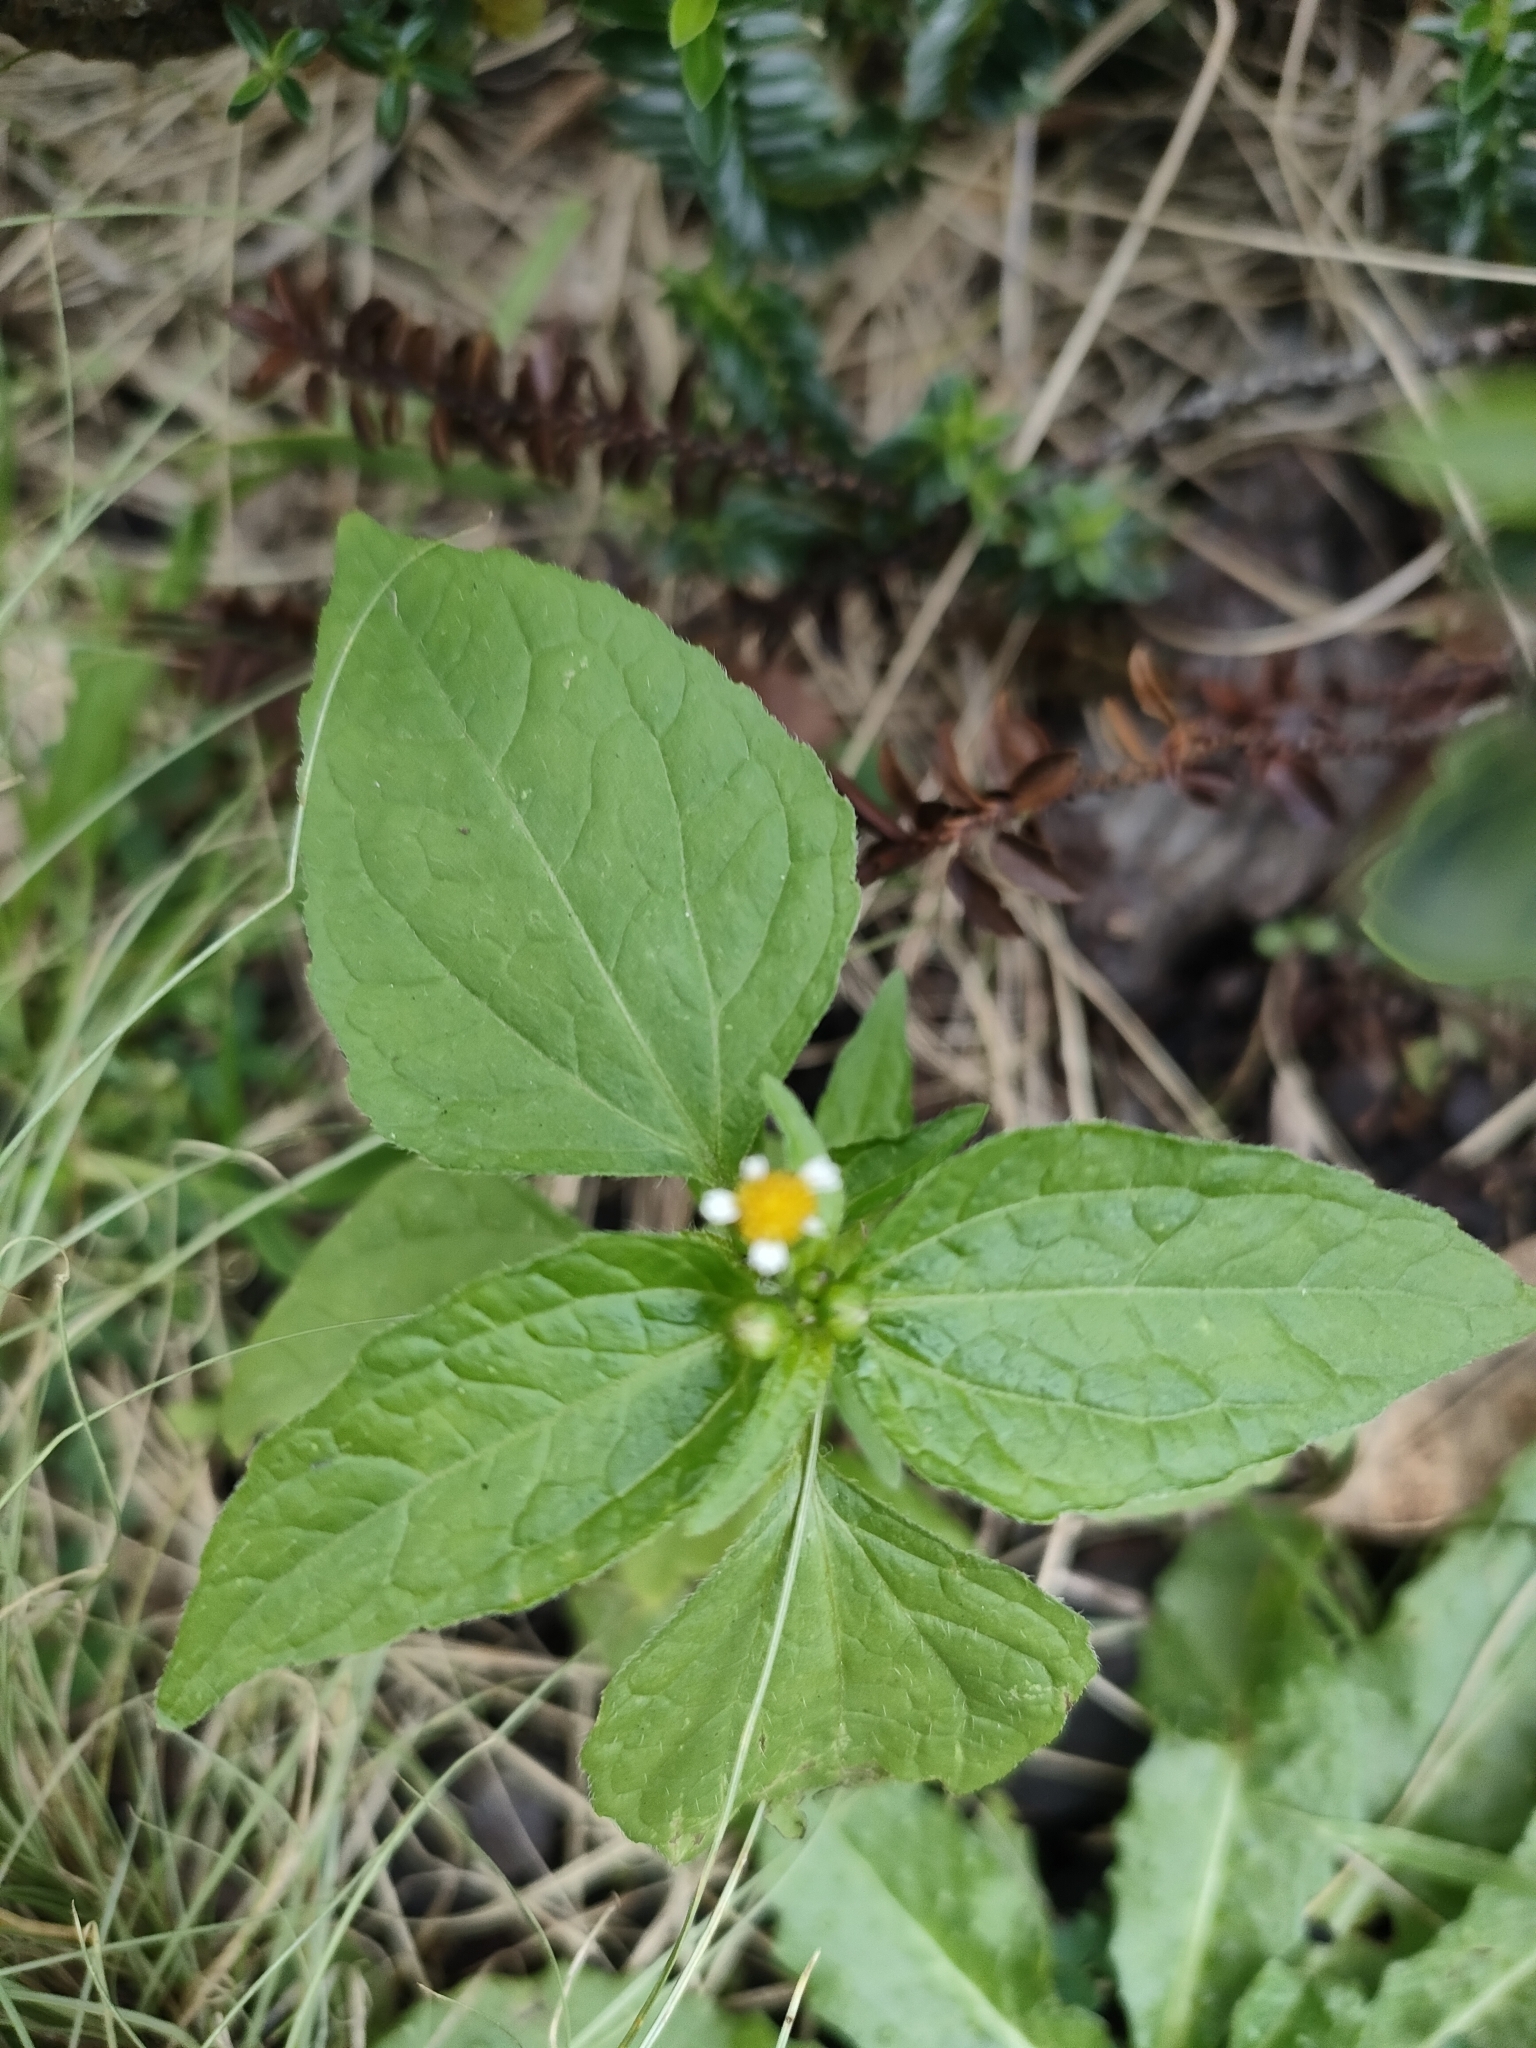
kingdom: Plantae
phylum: Tracheophyta
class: Magnoliopsida
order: Asterales
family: Asteraceae
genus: Galinsoga
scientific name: Galinsoga parviflora
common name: Gallant soldier
